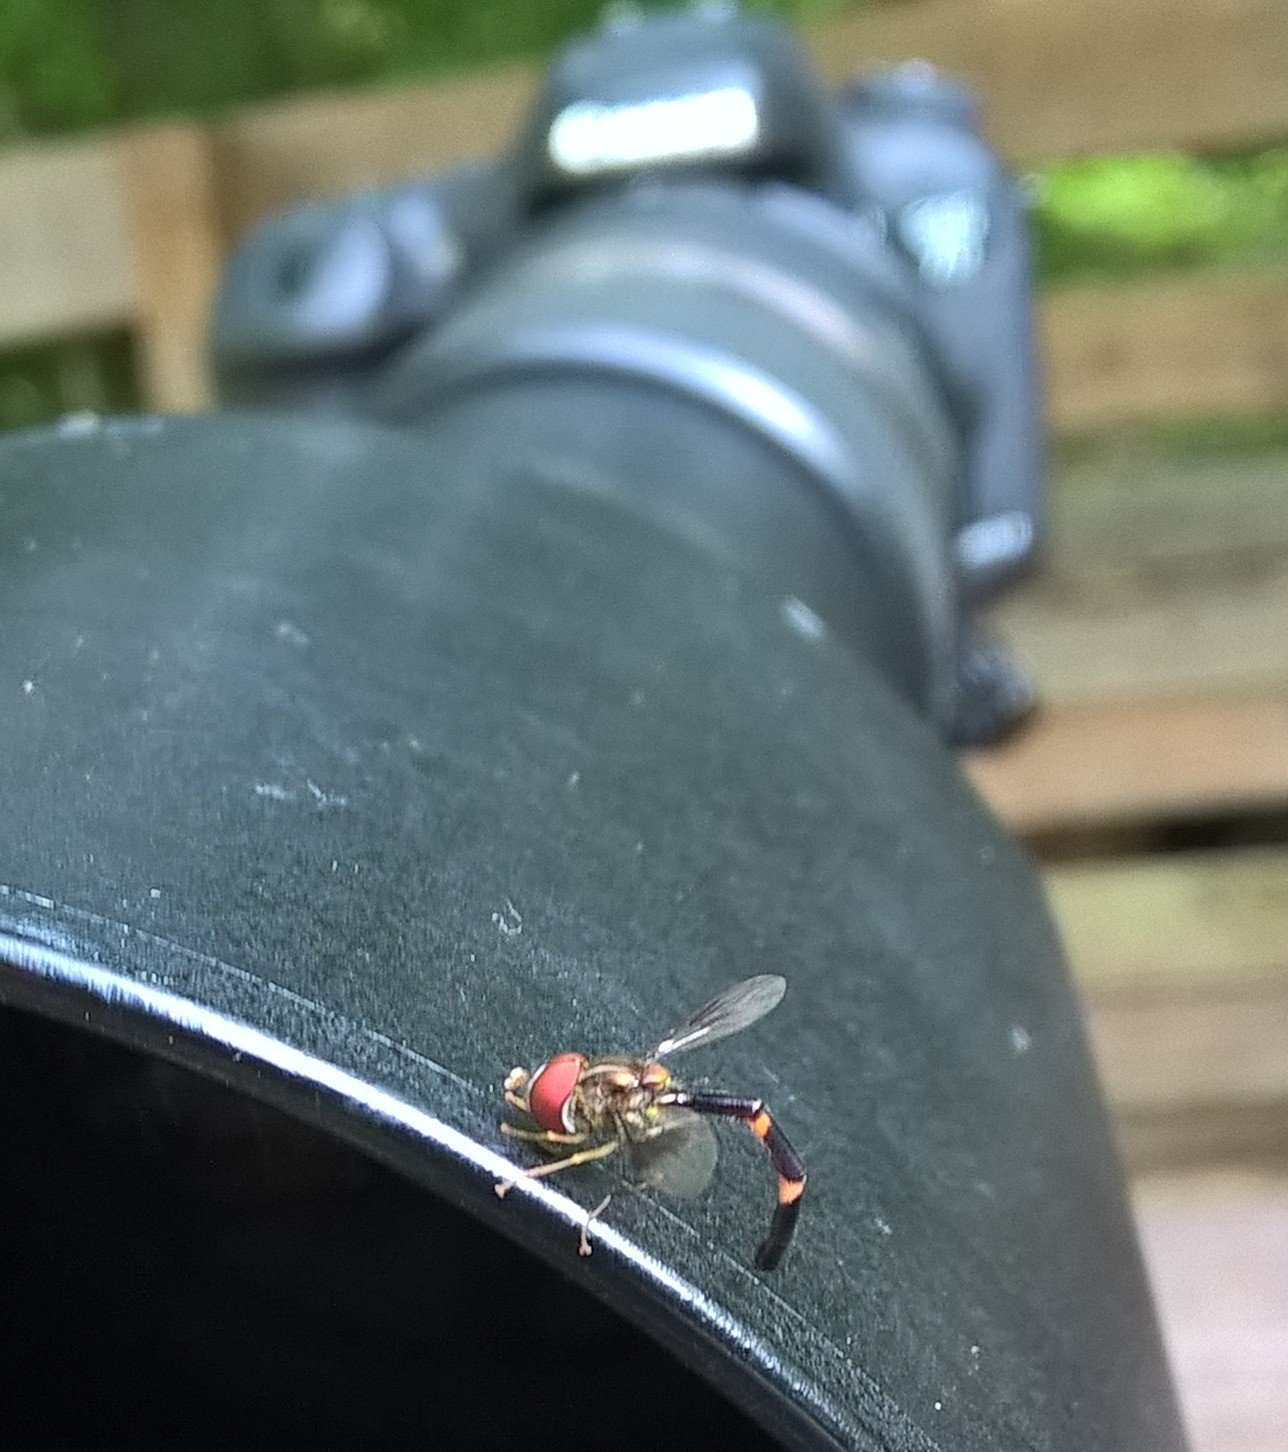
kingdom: Animalia
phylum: Arthropoda
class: Insecta
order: Diptera
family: Syrphidae
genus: Hypocritanus
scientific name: Hypocritanus fascipennis
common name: Eastern band-winged hover fly
